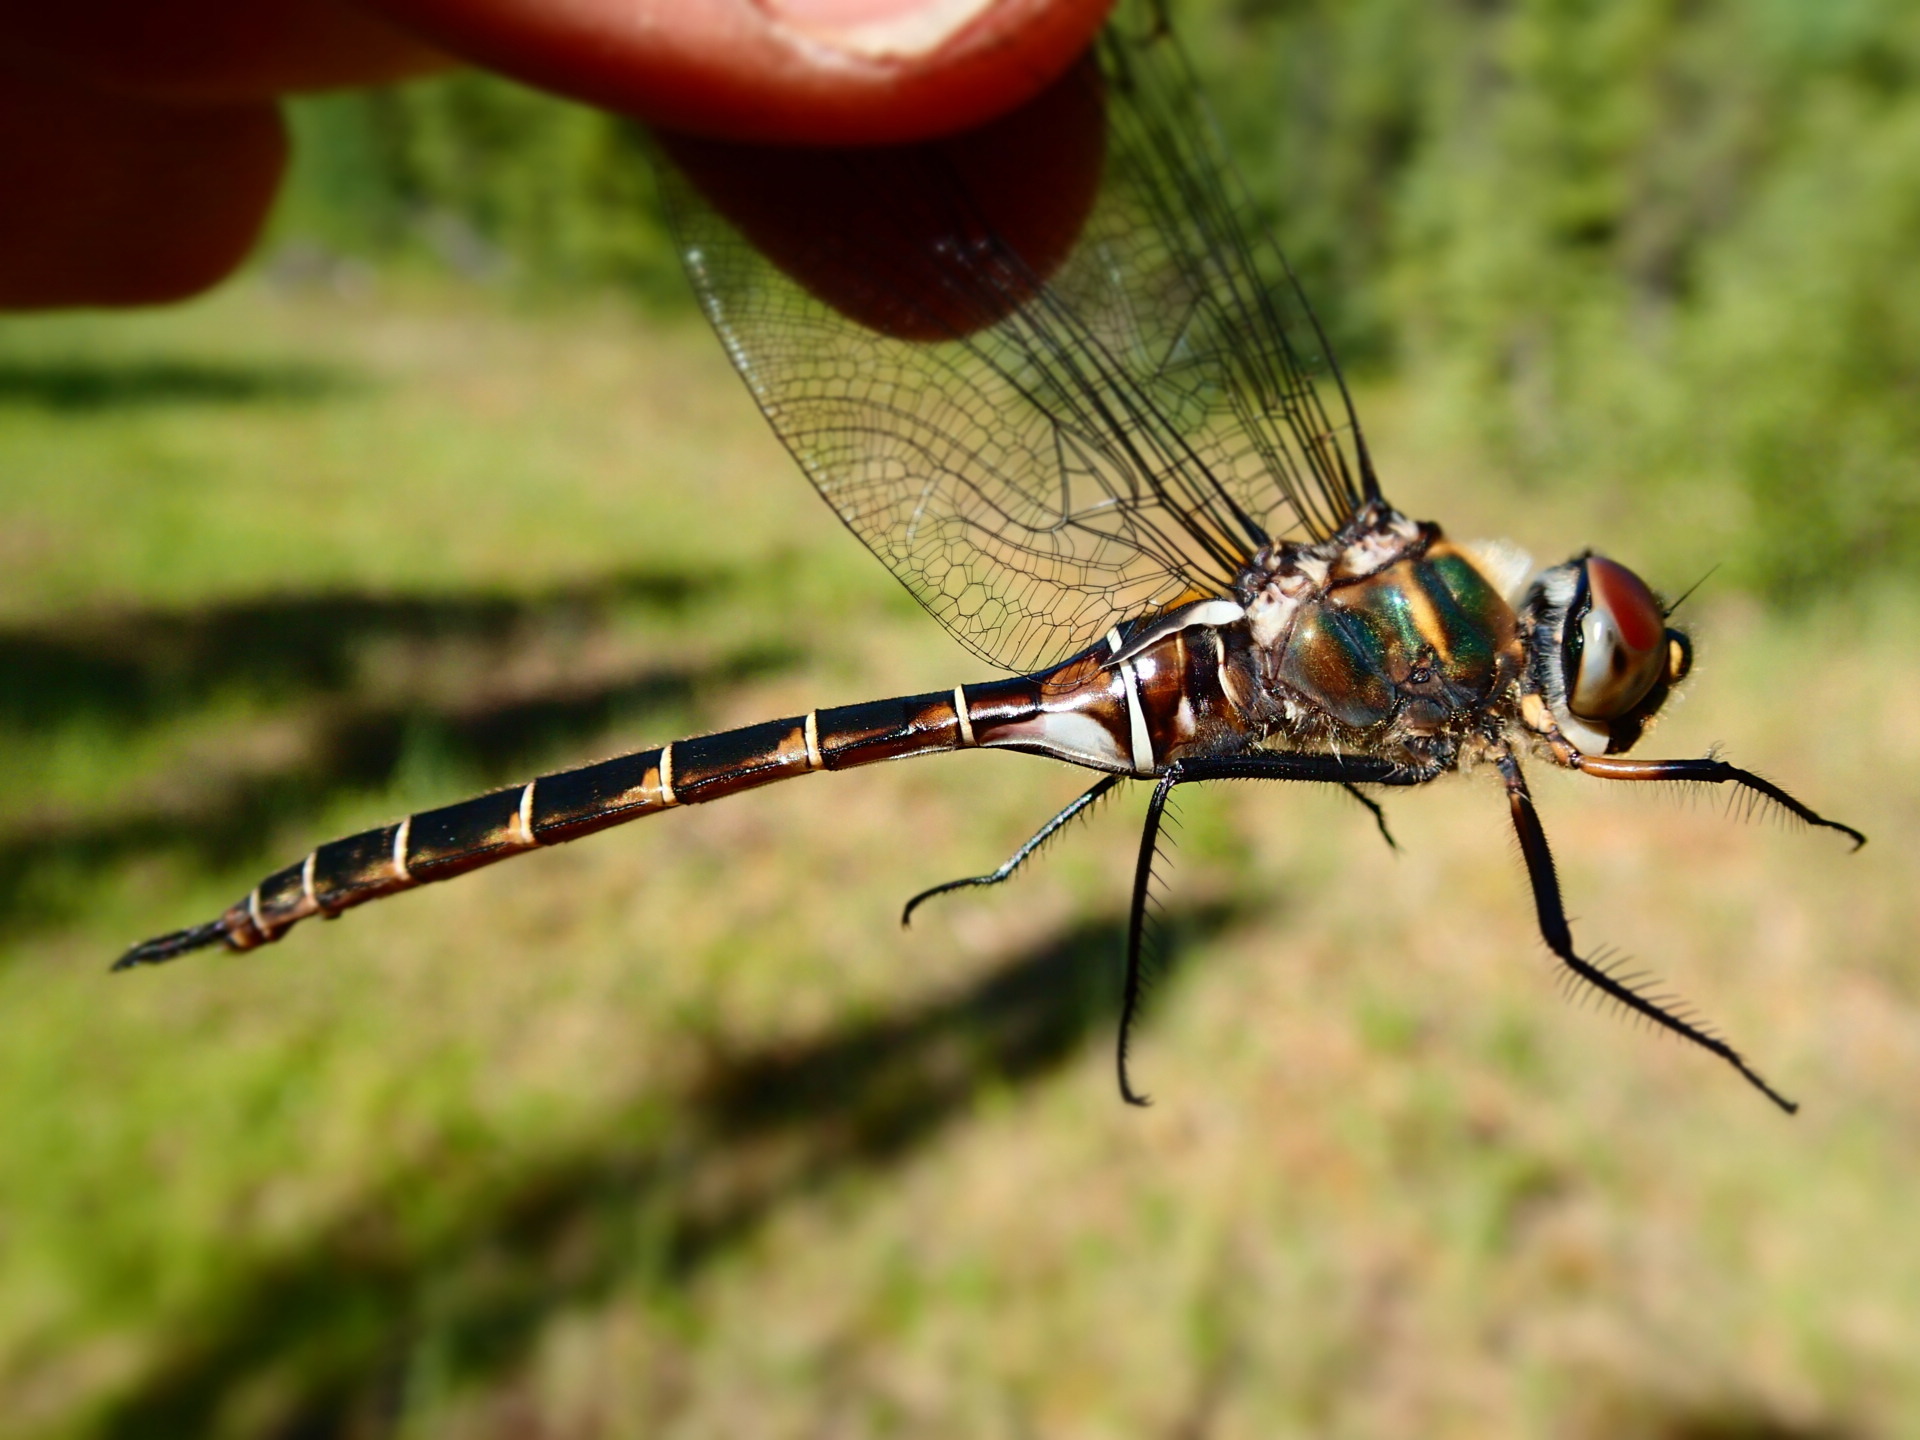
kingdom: Animalia
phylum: Arthropoda
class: Insecta
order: Odonata
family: Corduliidae
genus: Somatochlora
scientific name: Somatochlora cingulata
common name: Lake emerald
